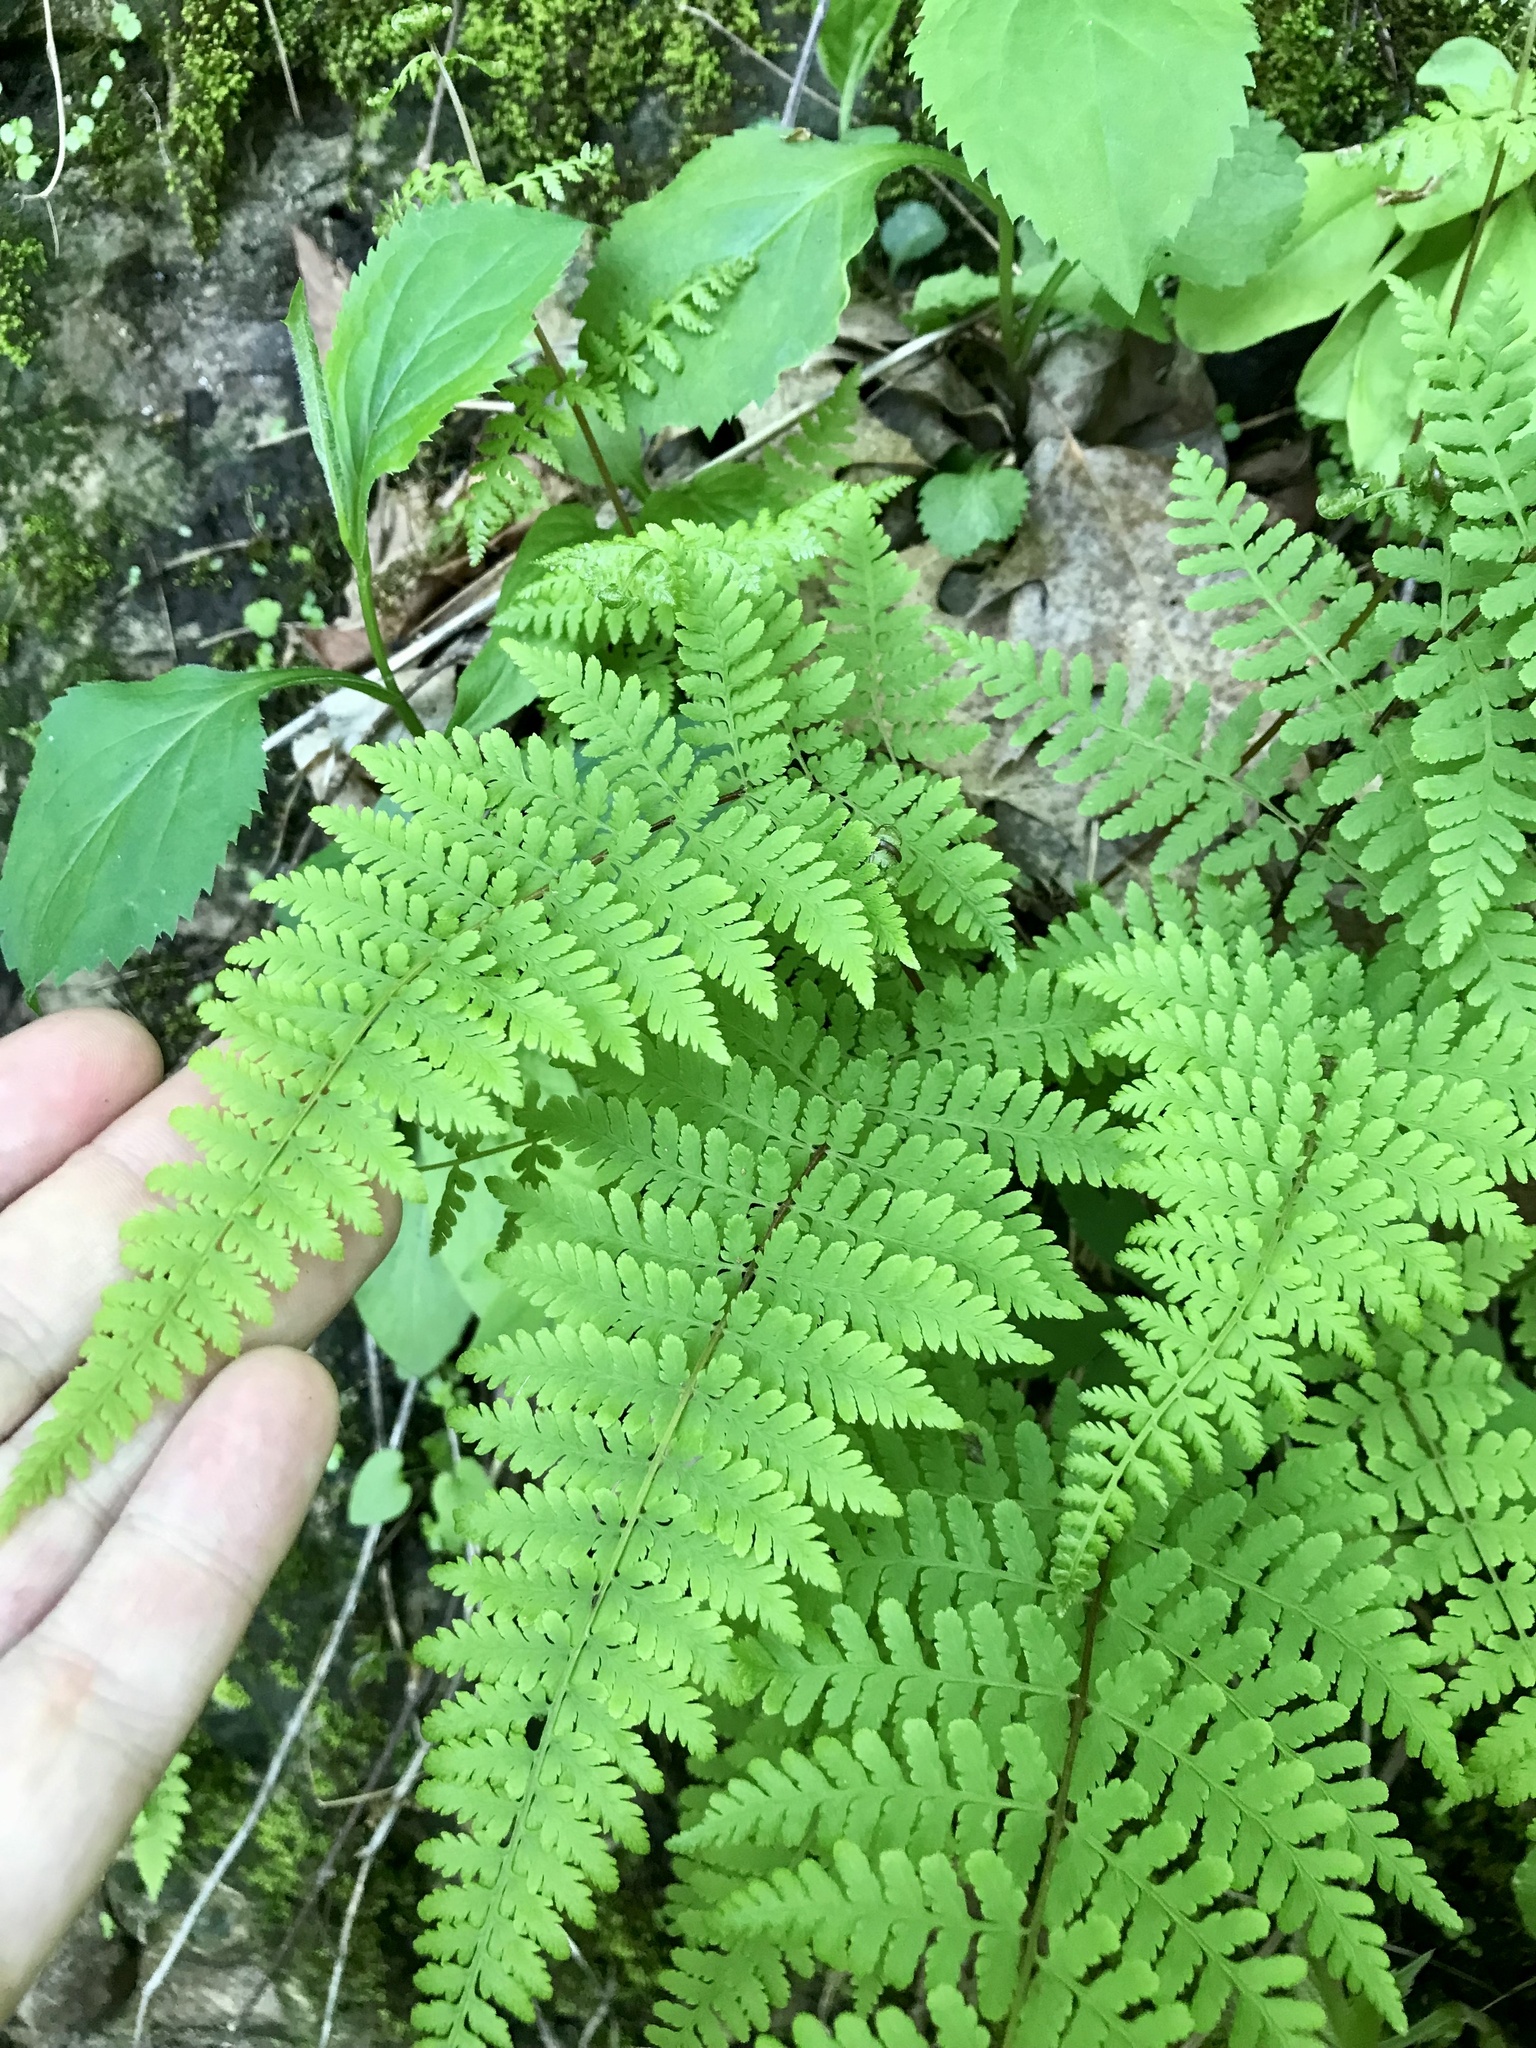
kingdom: Plantae
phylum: Tracheophyta
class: Polypodiopsida
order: Polypodiales
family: Cystopteridaceae
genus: Cystopteris
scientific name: Cystopteris bulbifera
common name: Bulblet bladder fern
